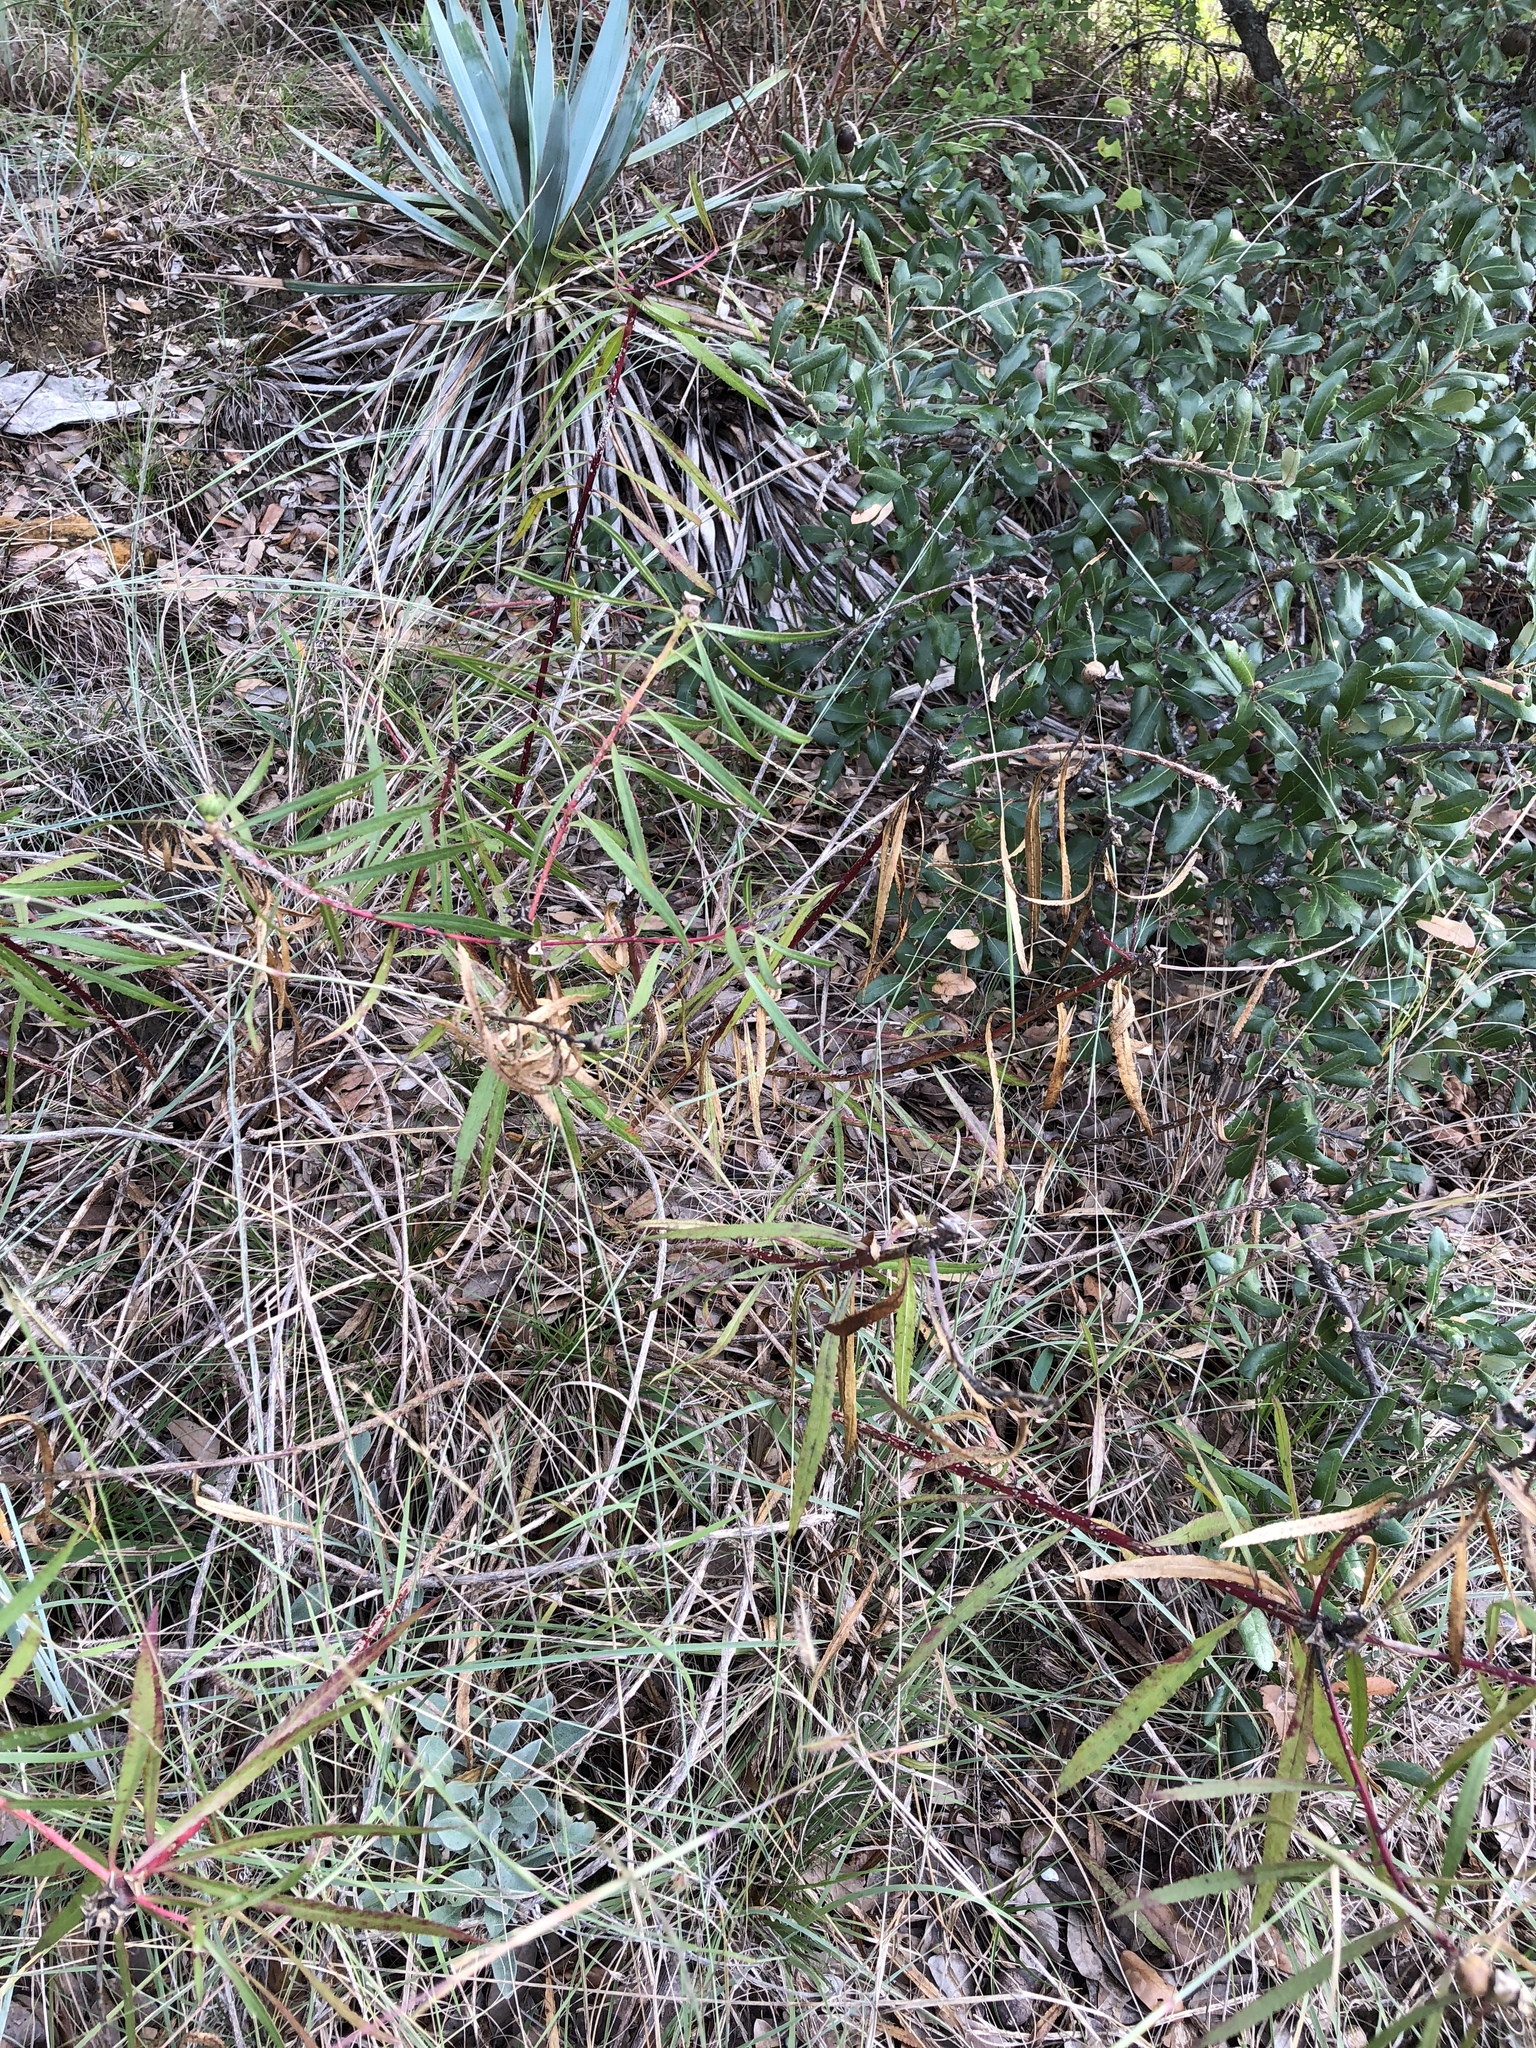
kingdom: Plantae
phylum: Tracheophyta
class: Magnoliopsida
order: Malpighiales
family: Euphorbiaceae
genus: Stillingia
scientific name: Stillingia texana
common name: Texas stillingia
